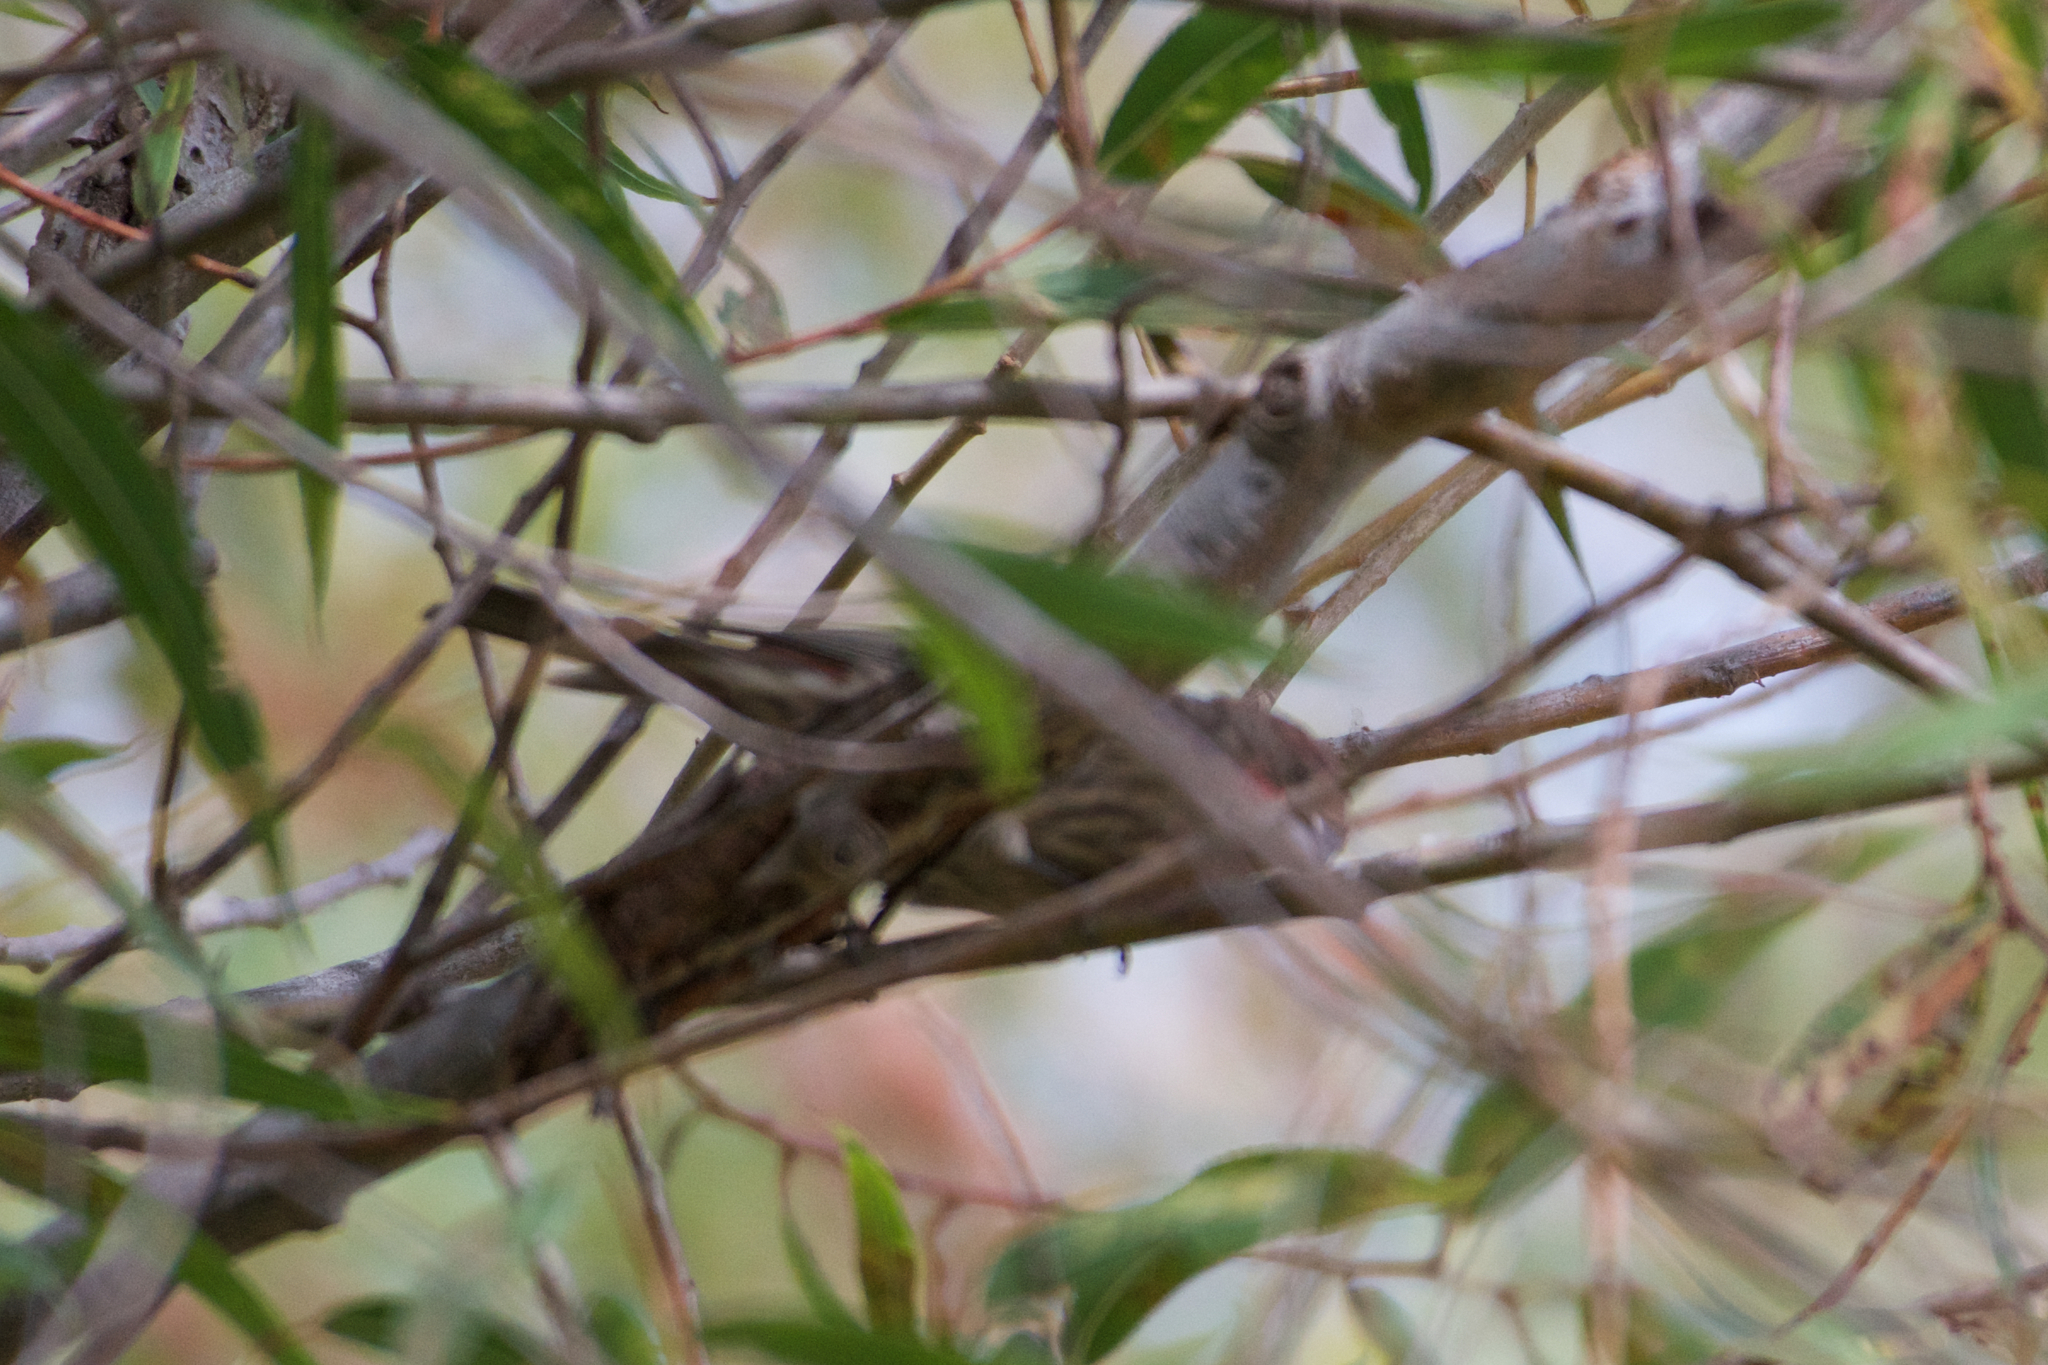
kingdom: Animalia
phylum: Chordata
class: Aves
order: Passeriformes
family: Fringillidae
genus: Haemorhous
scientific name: Haemorhous mexicanus
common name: House finch
